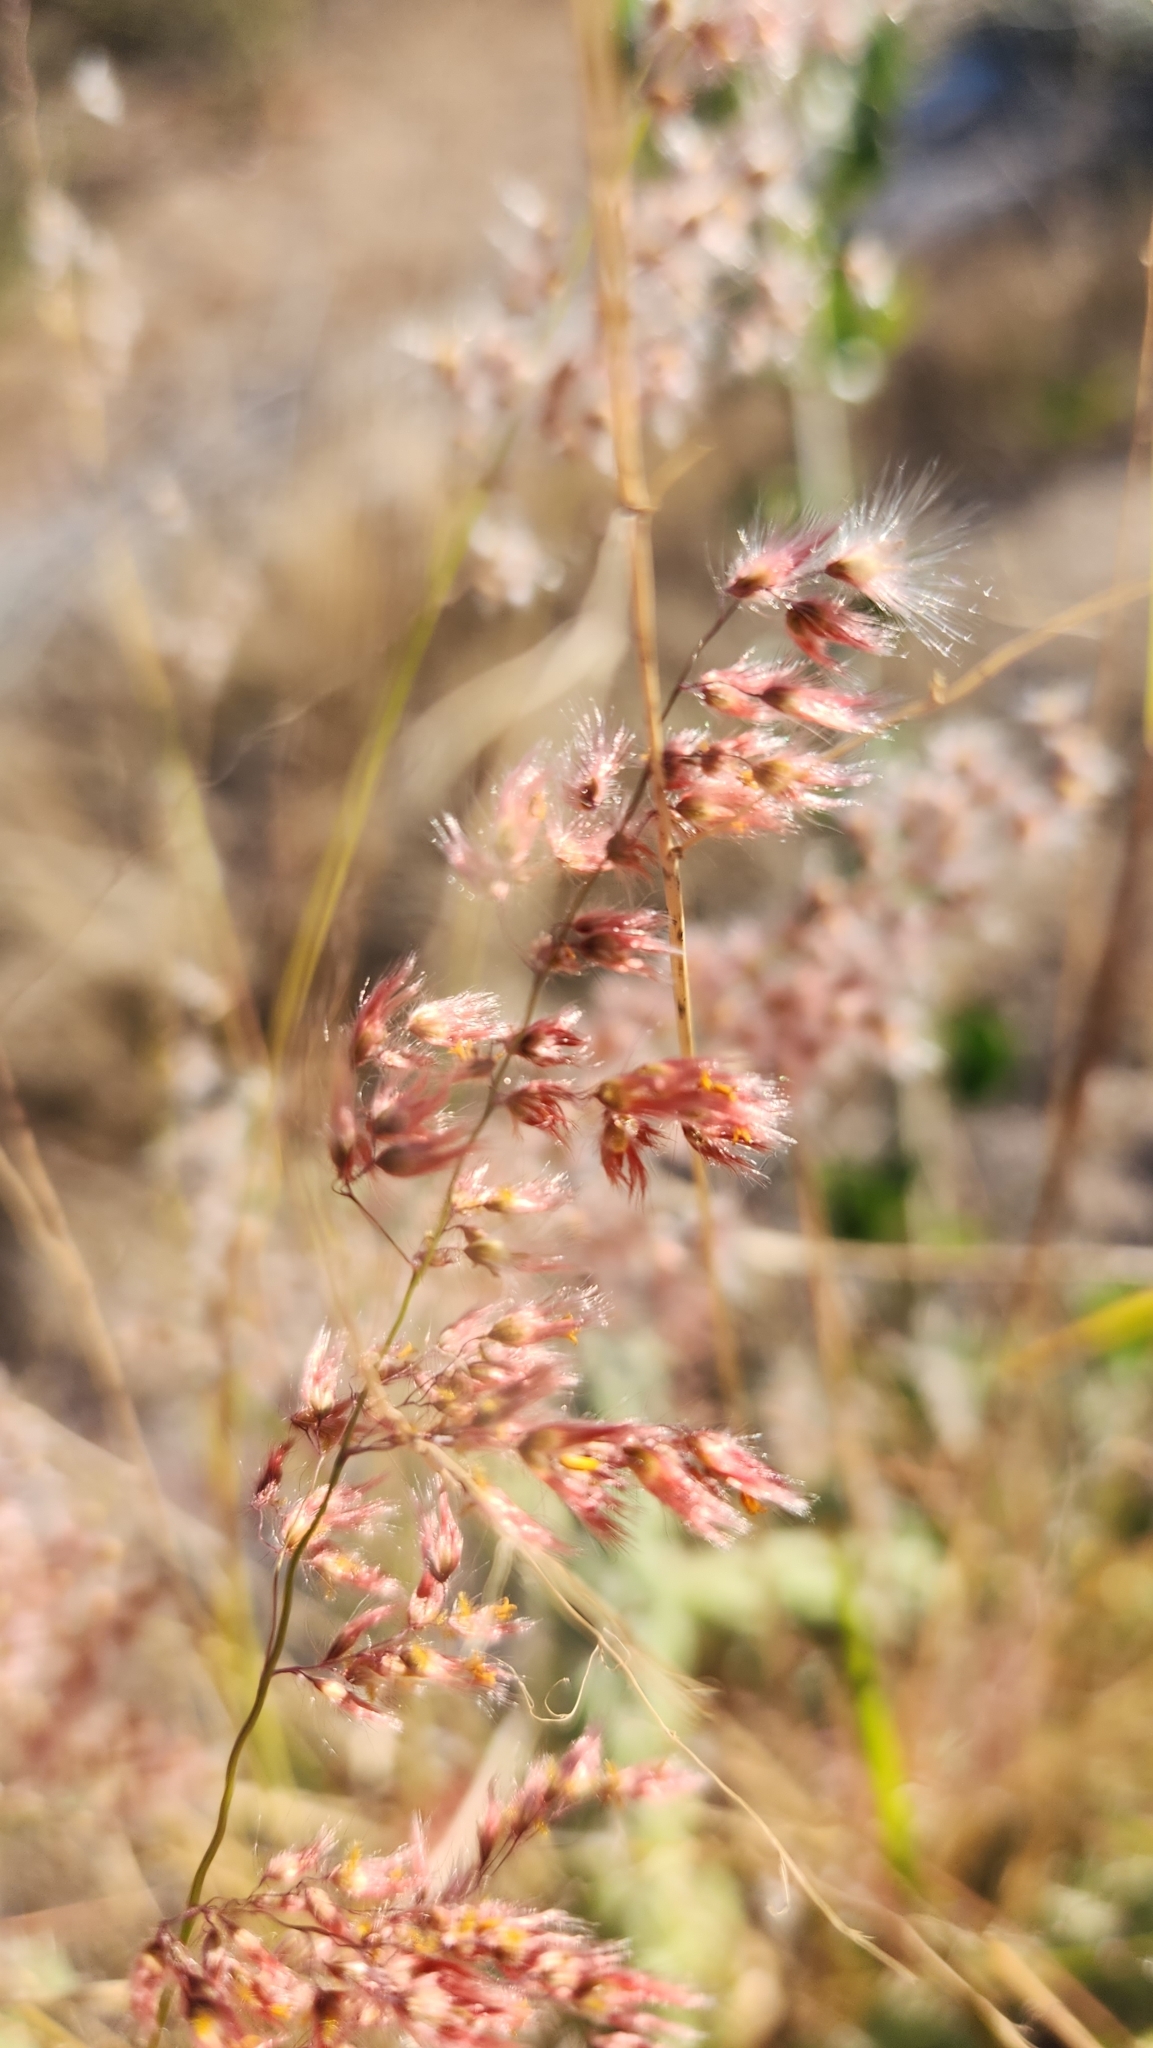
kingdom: Plantae
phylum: Tracheophyta
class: Liliopsida
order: Poales
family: Poaceae
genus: Melinis
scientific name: Melinis repens
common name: Rose natal grass
